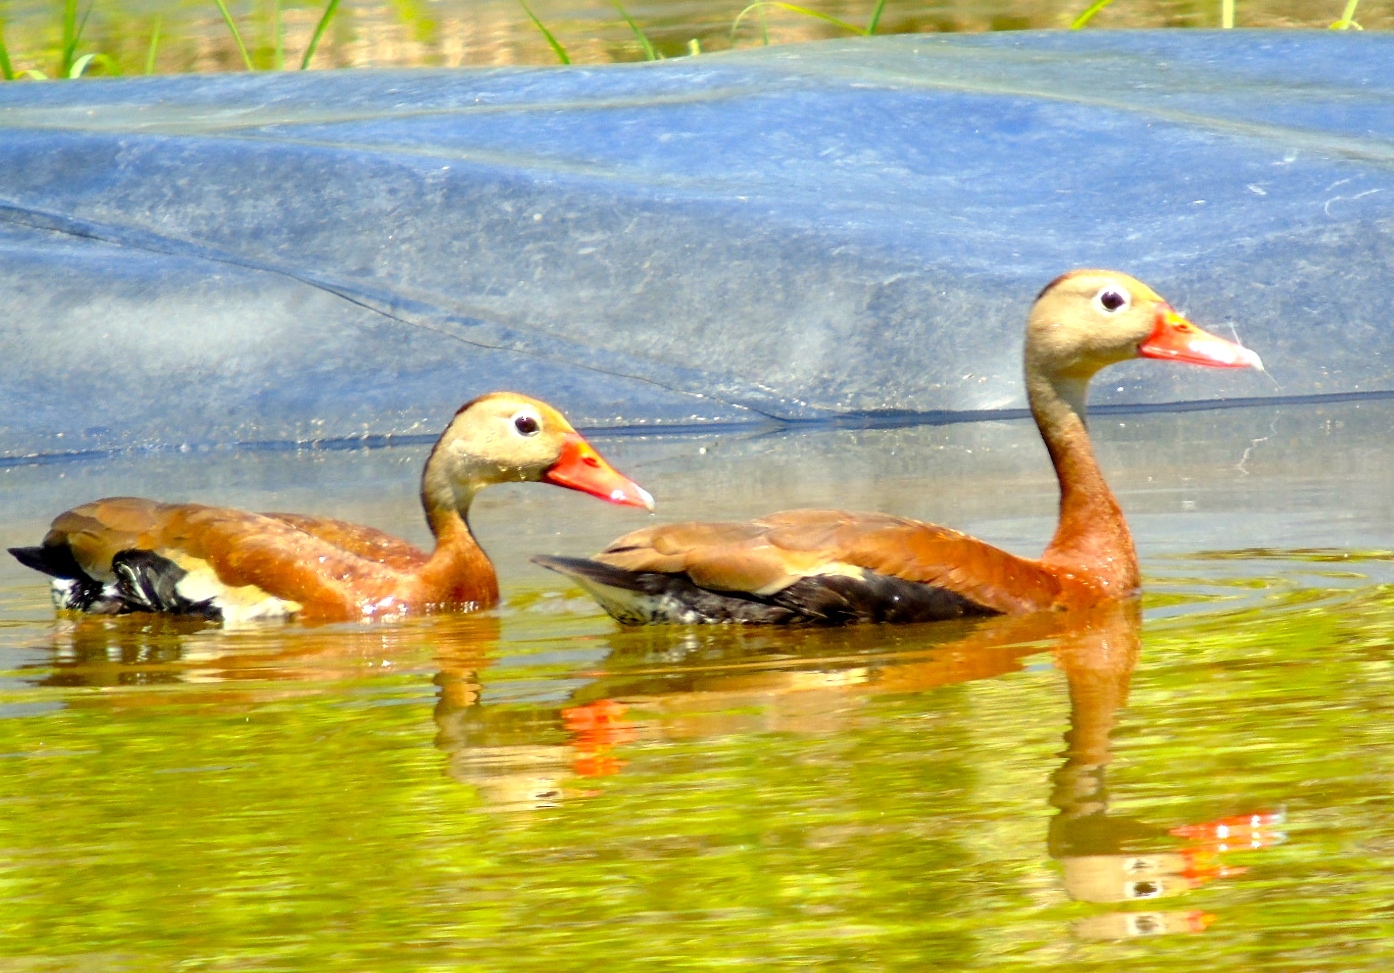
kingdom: Animalia
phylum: Chordata
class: Aves
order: Anseriformes
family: Anatidae
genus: Dendrocygna
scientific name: Dendrocygna autumnalis
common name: Black-bellied whistling duck
